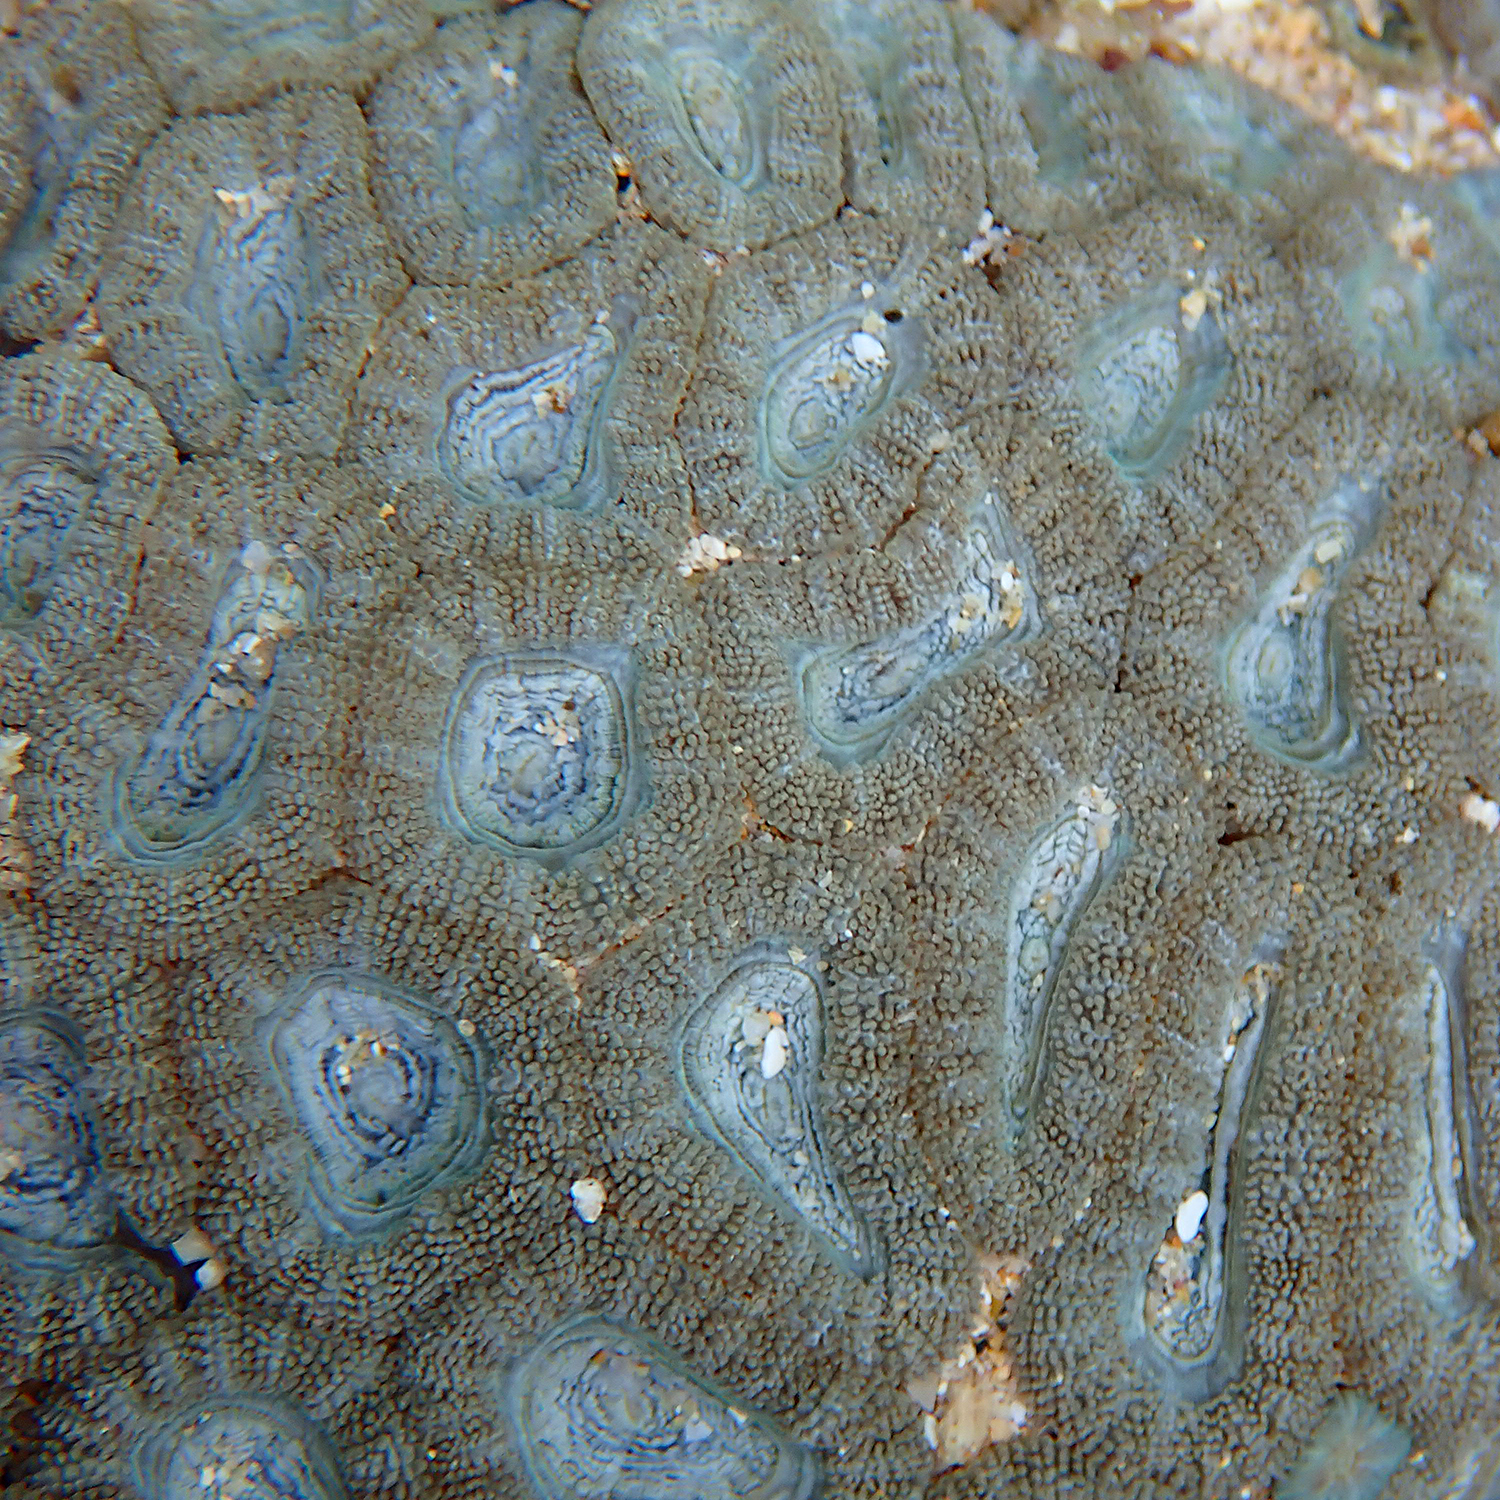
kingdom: Animalia
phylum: Cnidaria
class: Anthozoa
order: Scleractinia
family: Lobophylliidae
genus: Micromussa
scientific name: Micromussa lordhowensis
